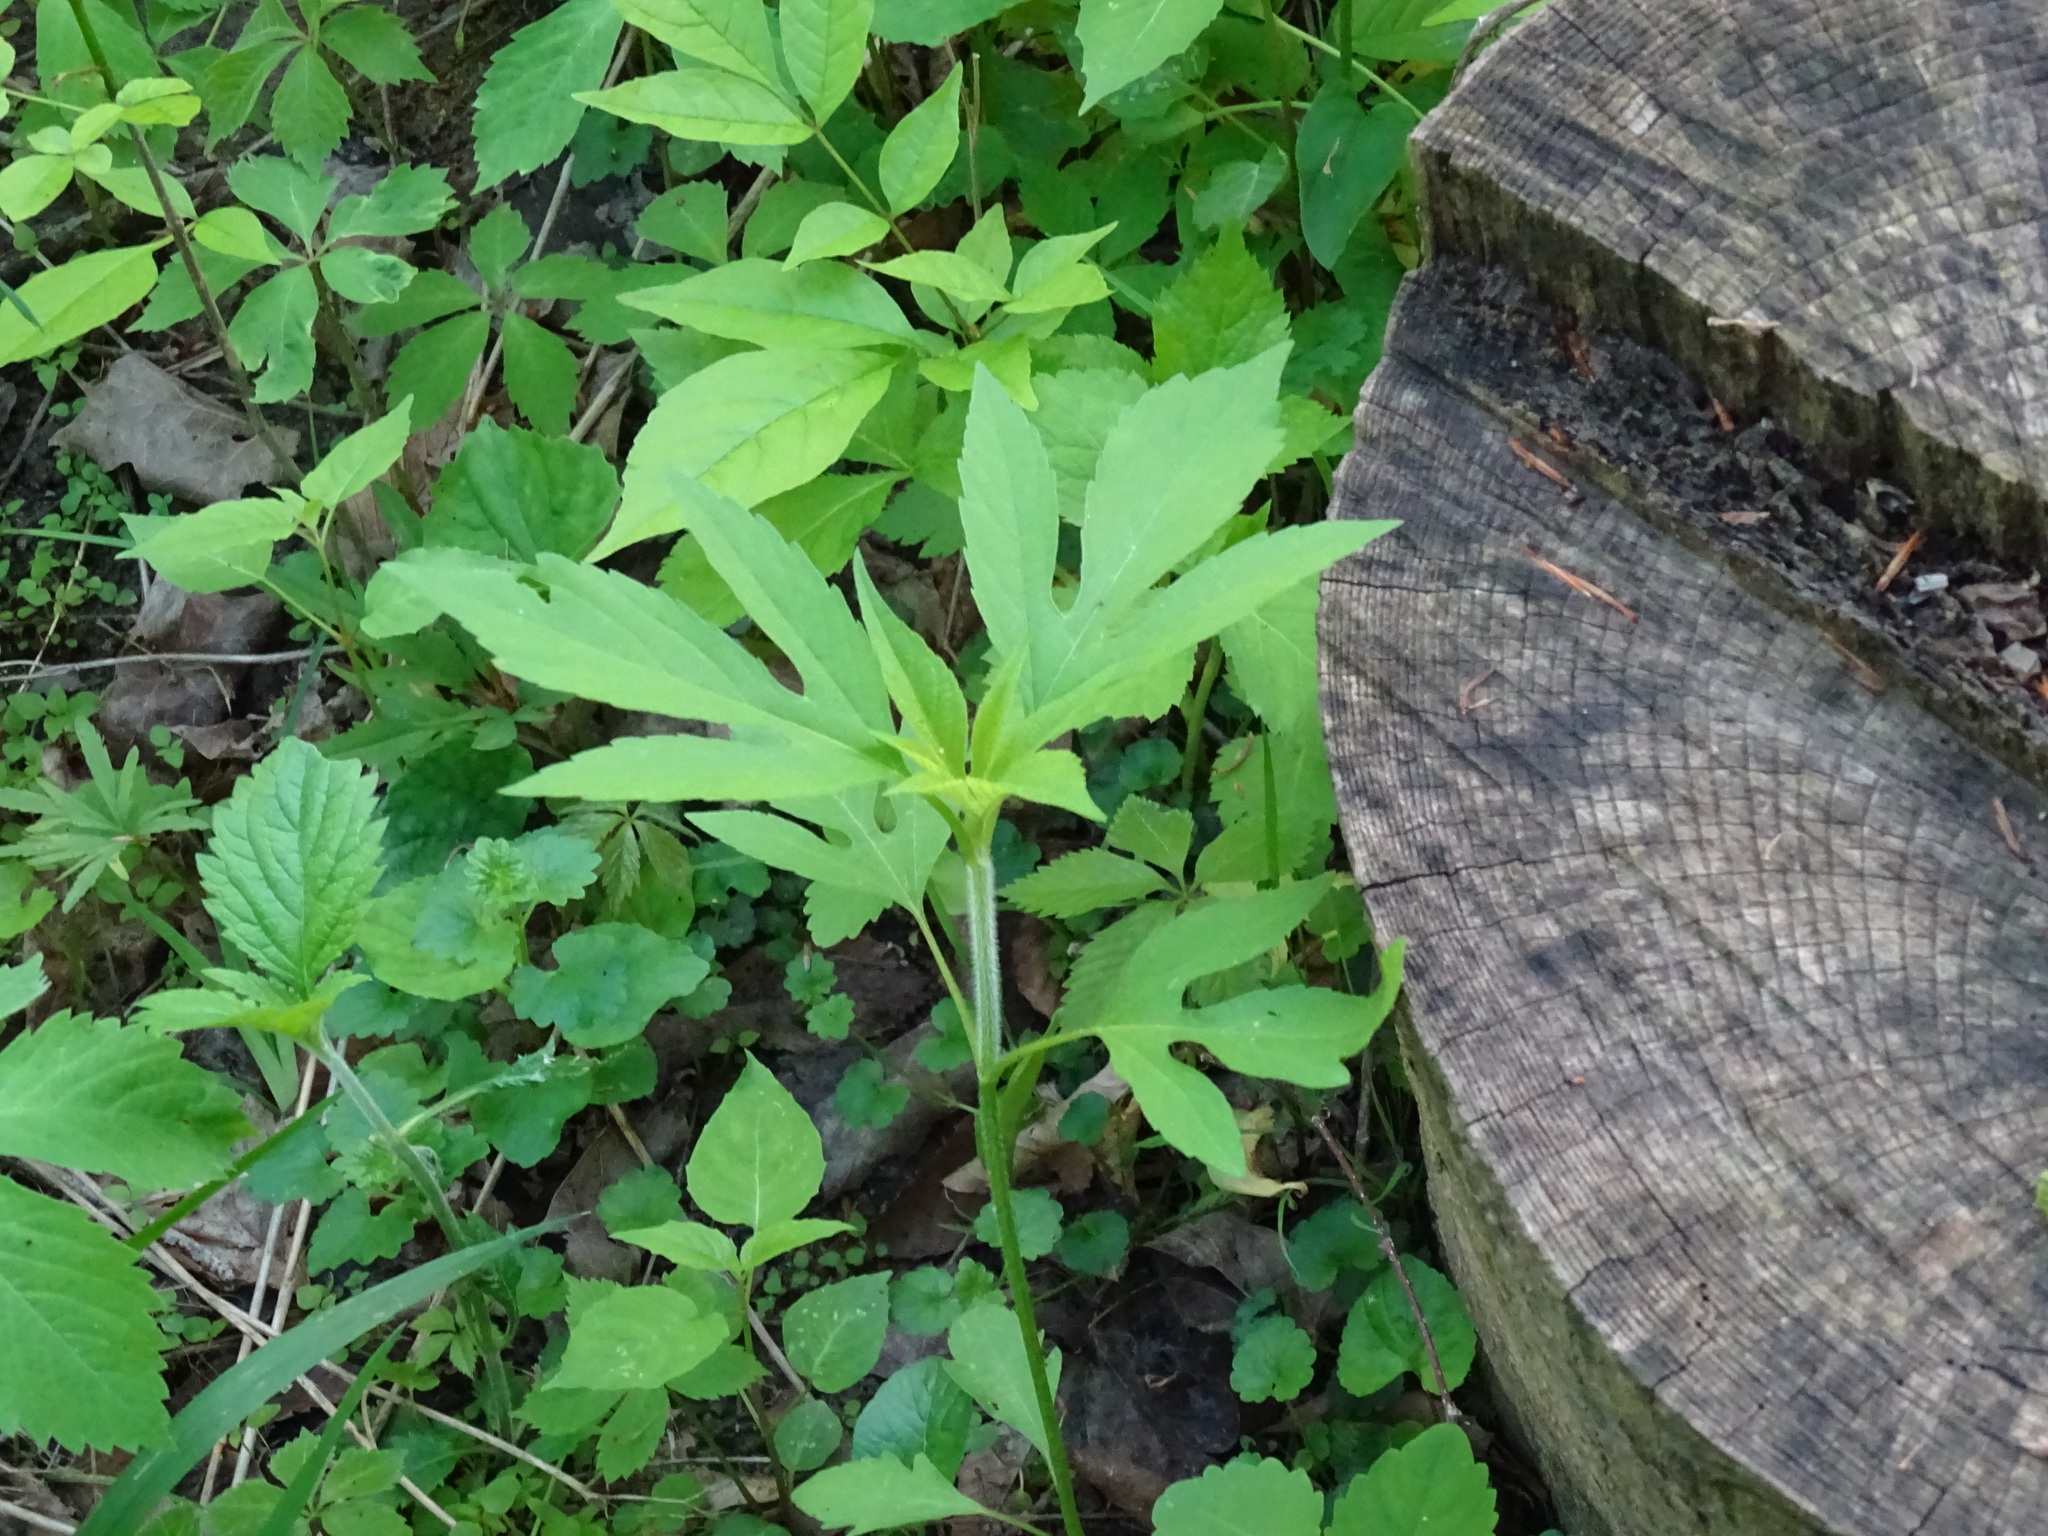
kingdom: Plantae
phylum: Tracheophyta
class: Magnoliopsida
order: Asterales
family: Asteraceae
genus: Ambrosia
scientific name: Ambrosia trifida
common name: Giant ragweed
